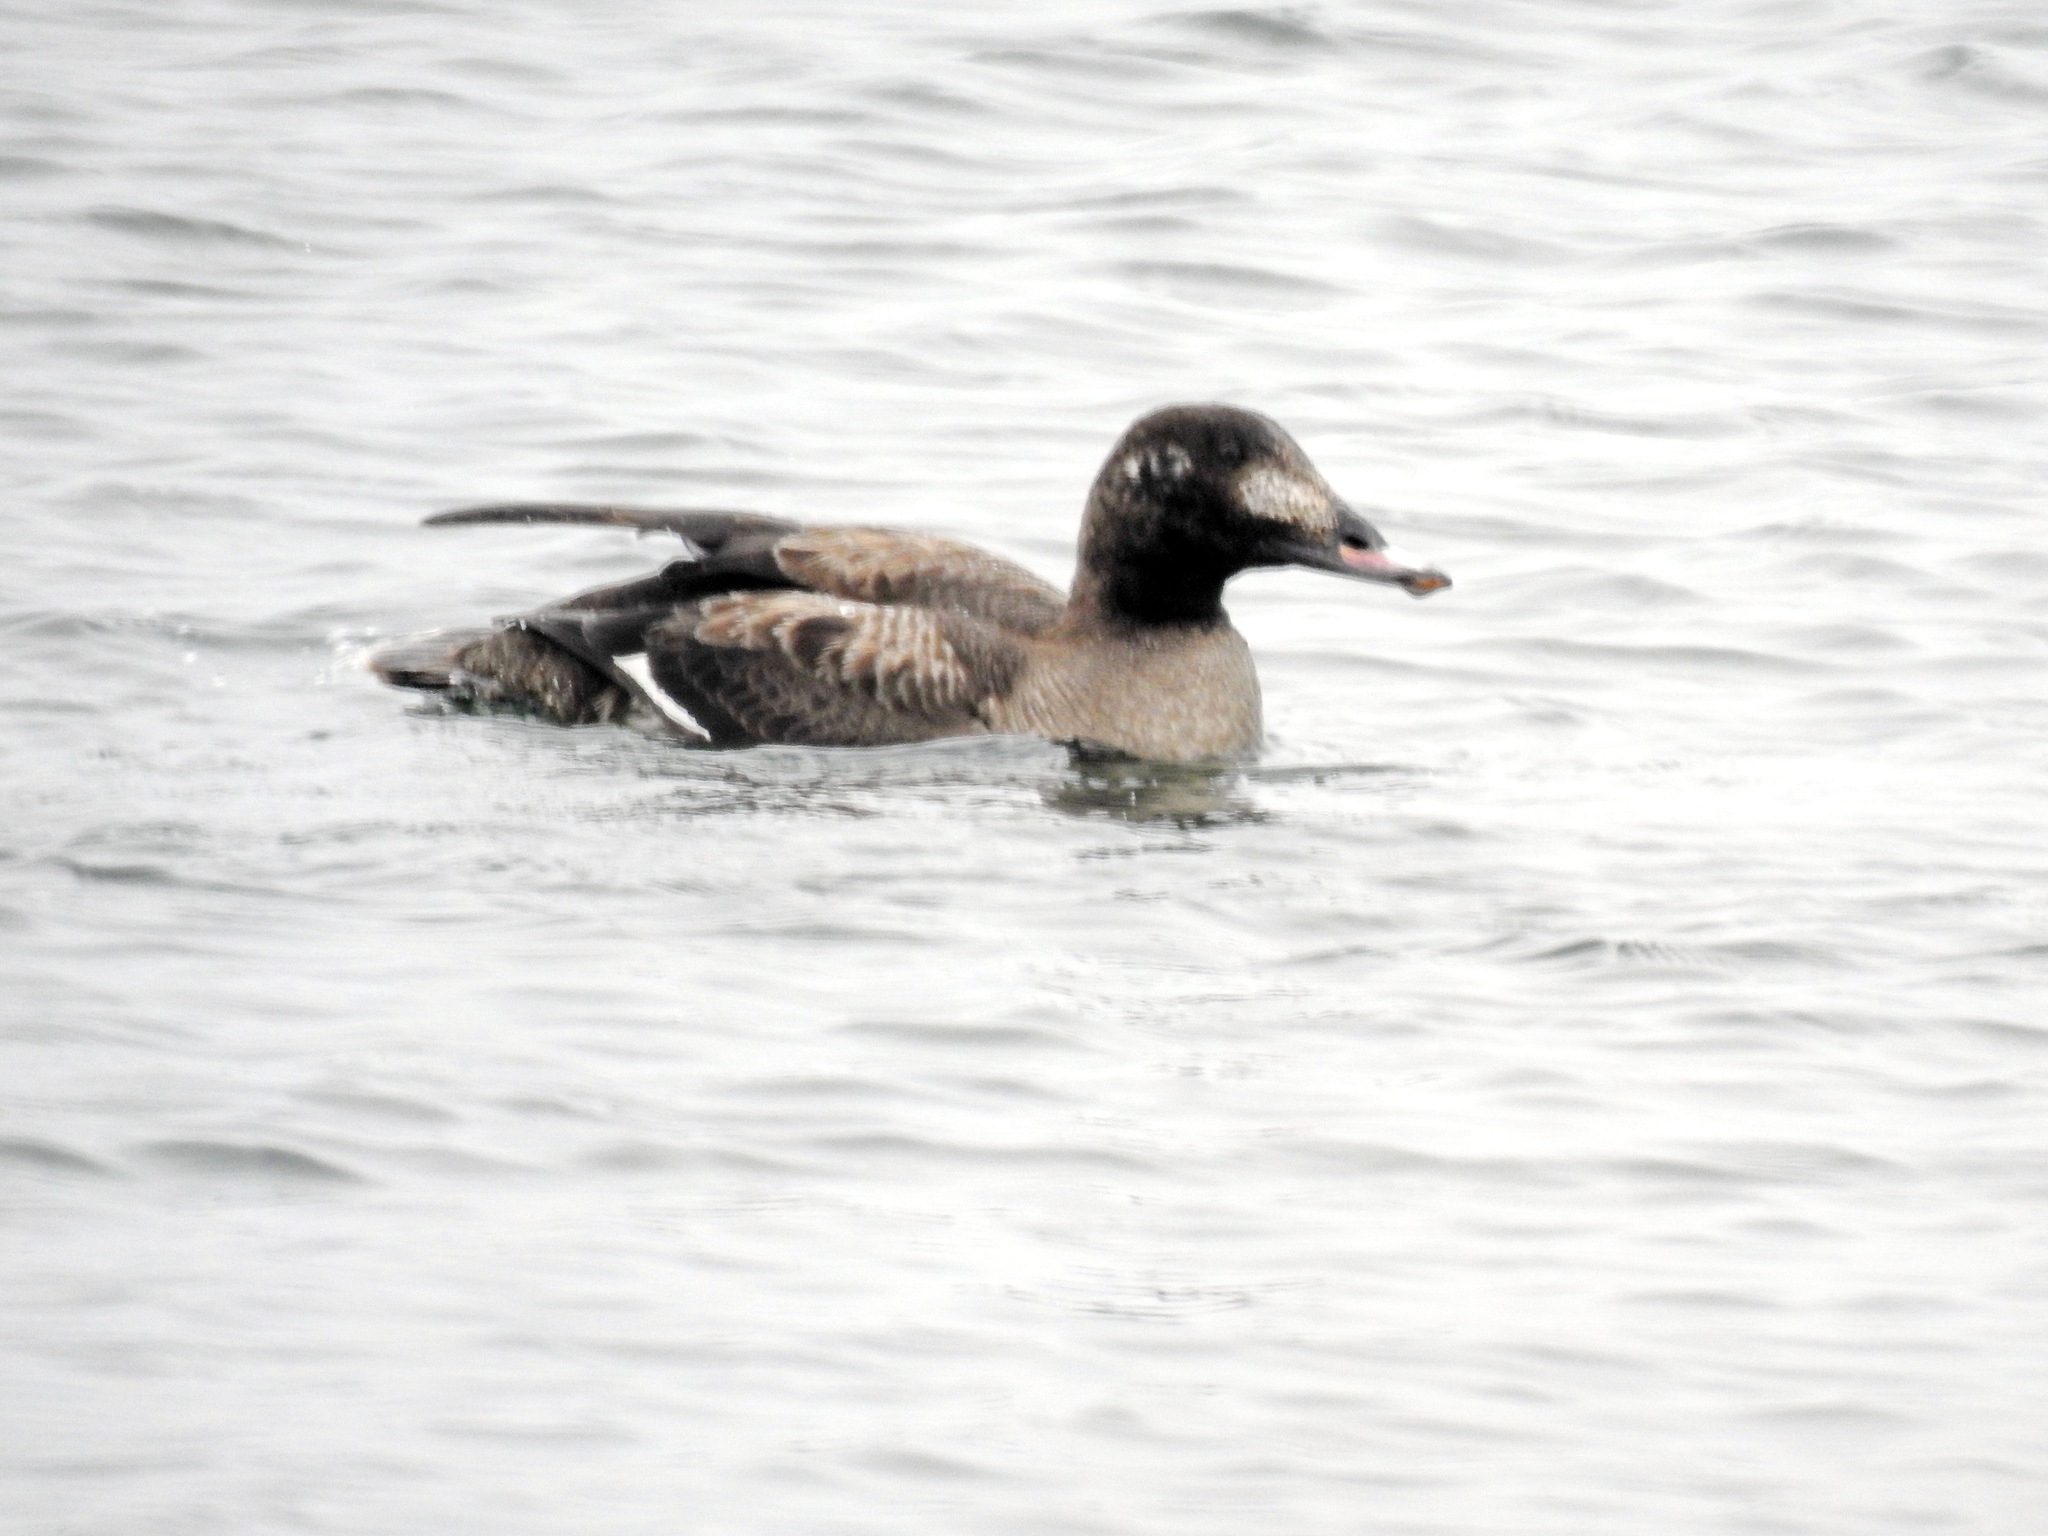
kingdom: Animalia
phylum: Chordata
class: Aves
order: Anseriformes
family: Anatidae
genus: Melanitta
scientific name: Melanitta deglandi
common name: White-winged scoter
